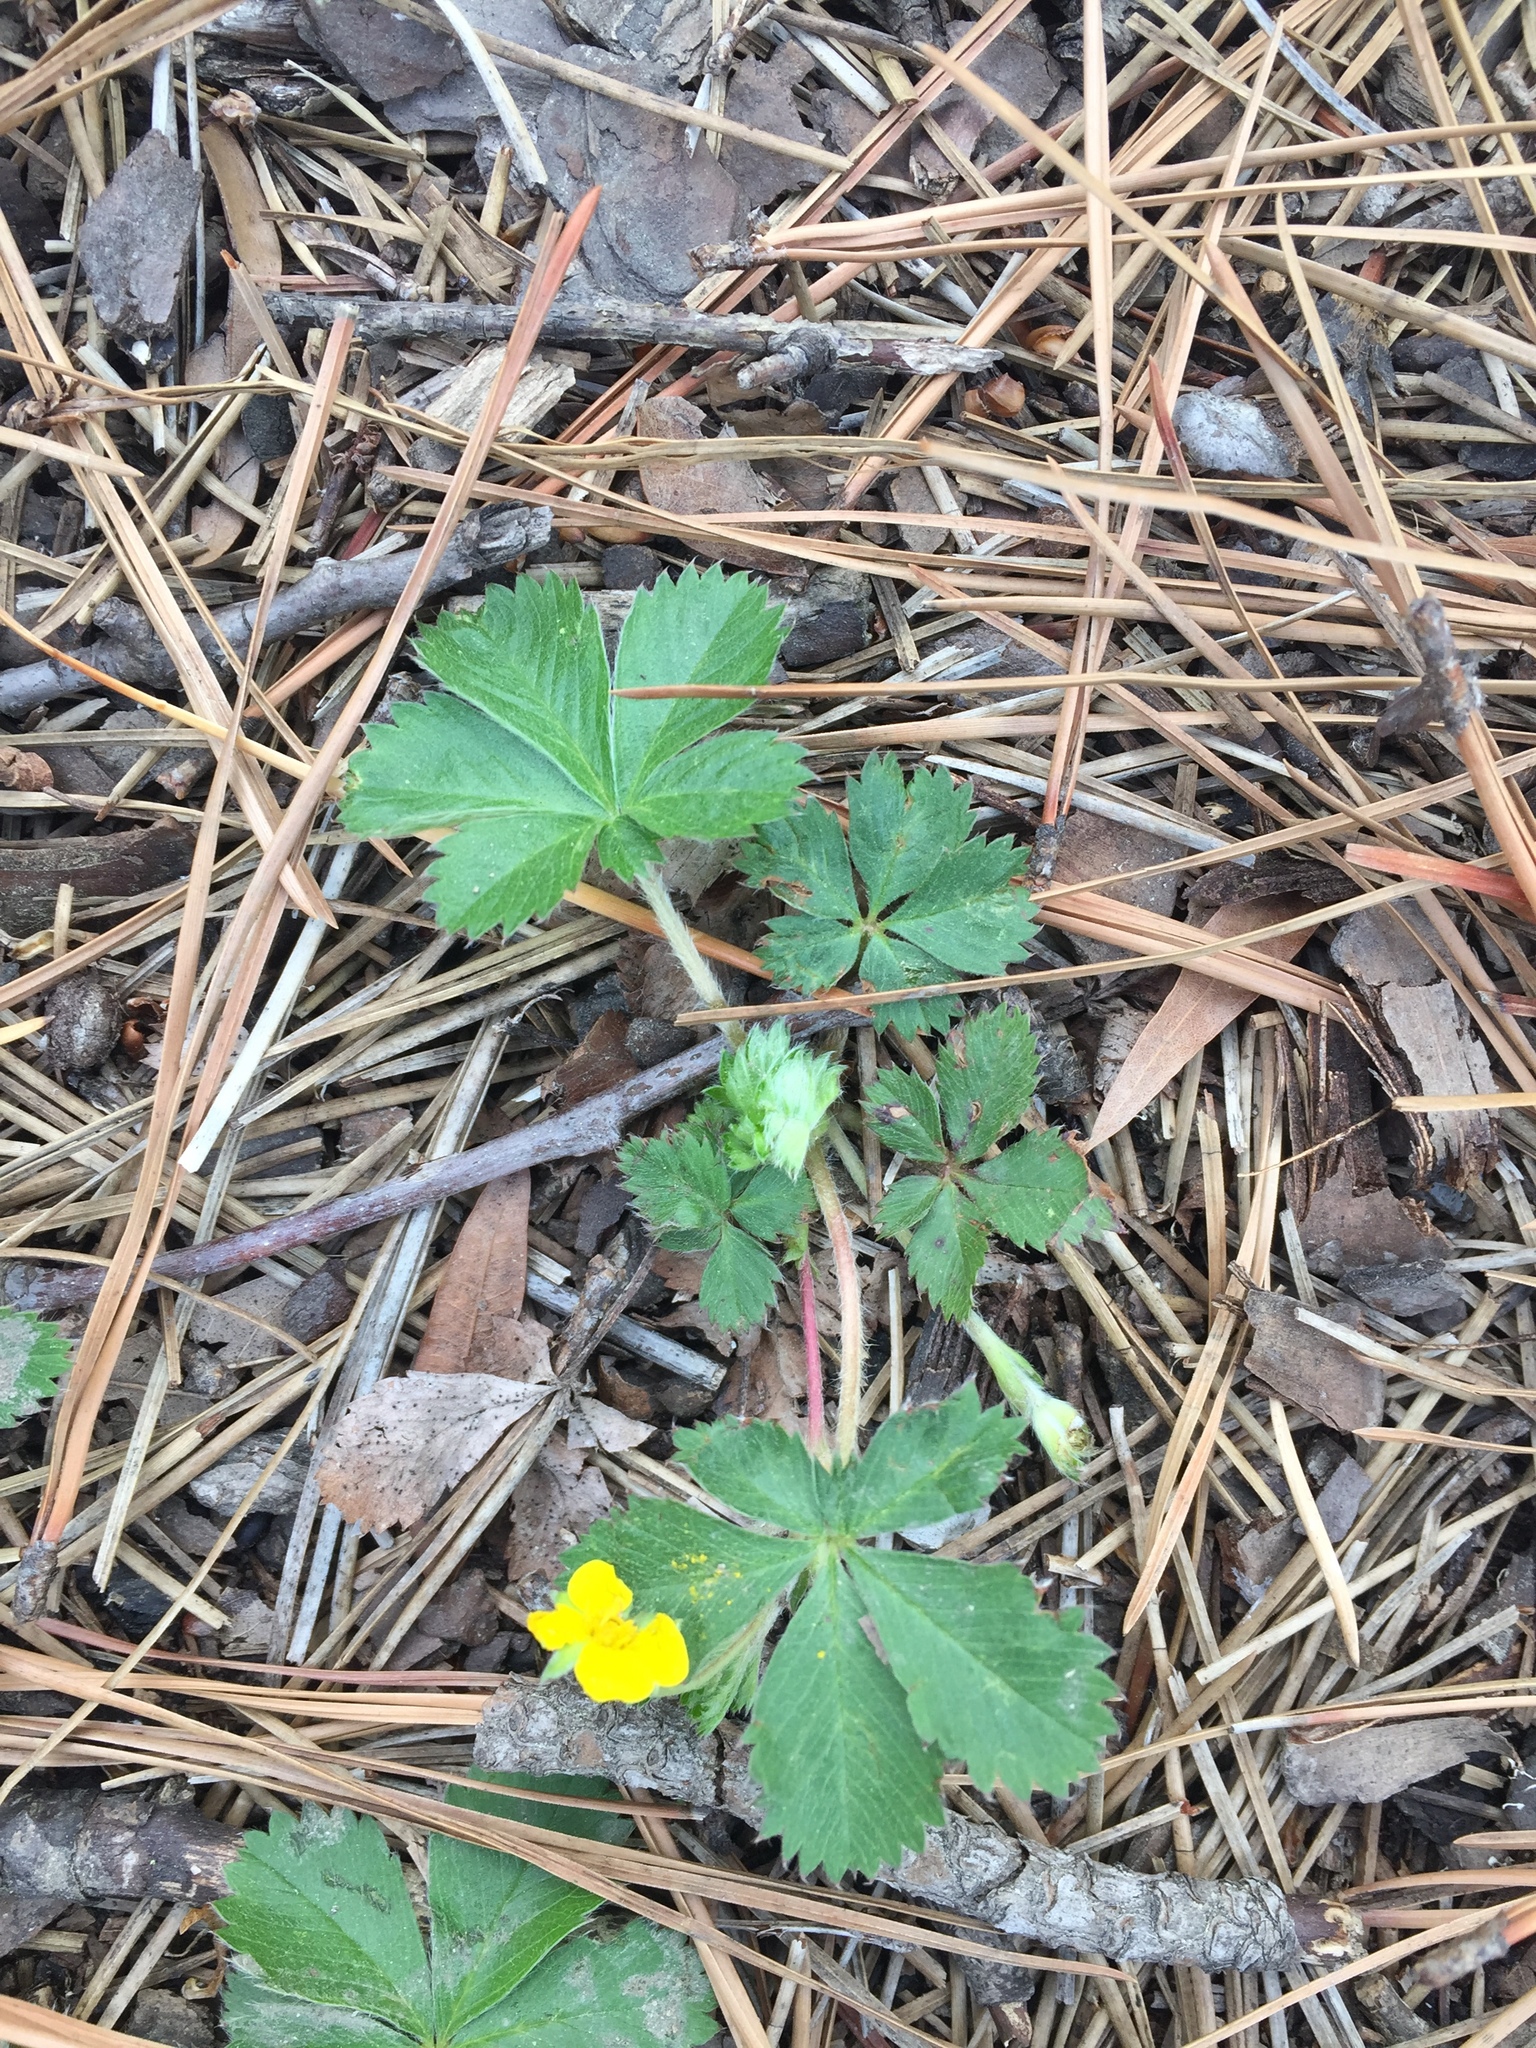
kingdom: Plantae
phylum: Tracheophyta
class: Magnoliopsida
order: Rosales
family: Rosaceae
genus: Potentilla
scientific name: Potentilla simplex
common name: Old field cinquefoil
